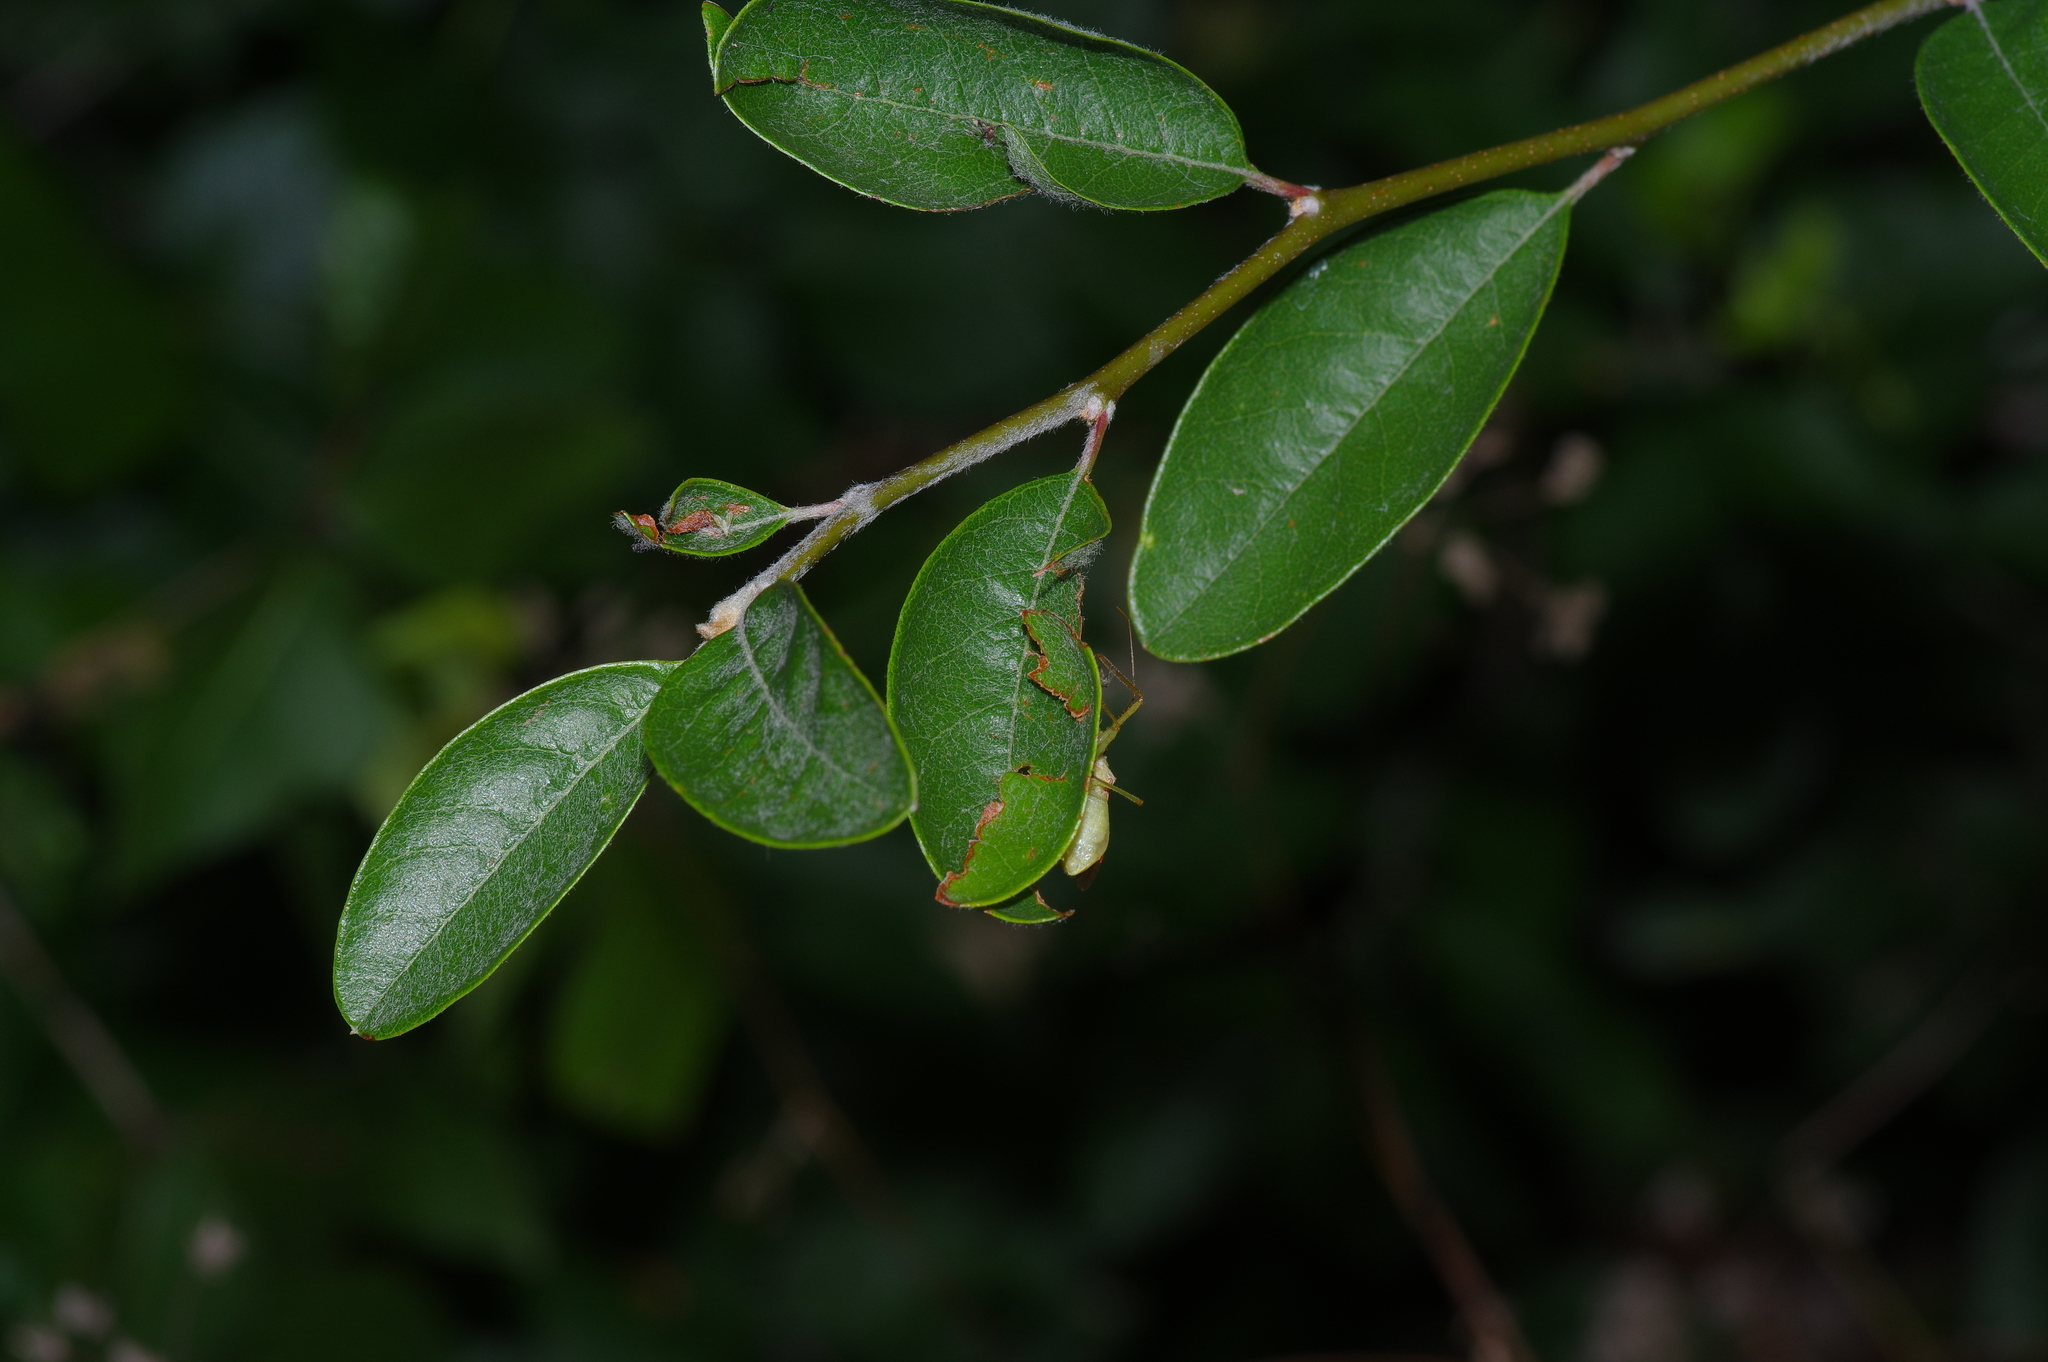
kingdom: Plantae
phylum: Tracheophyta
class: Magnoliopsida
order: Ericales
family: Sapotaceae
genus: Sideroxylon
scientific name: Sideroxylon lanuginosum
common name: Chittamwood
